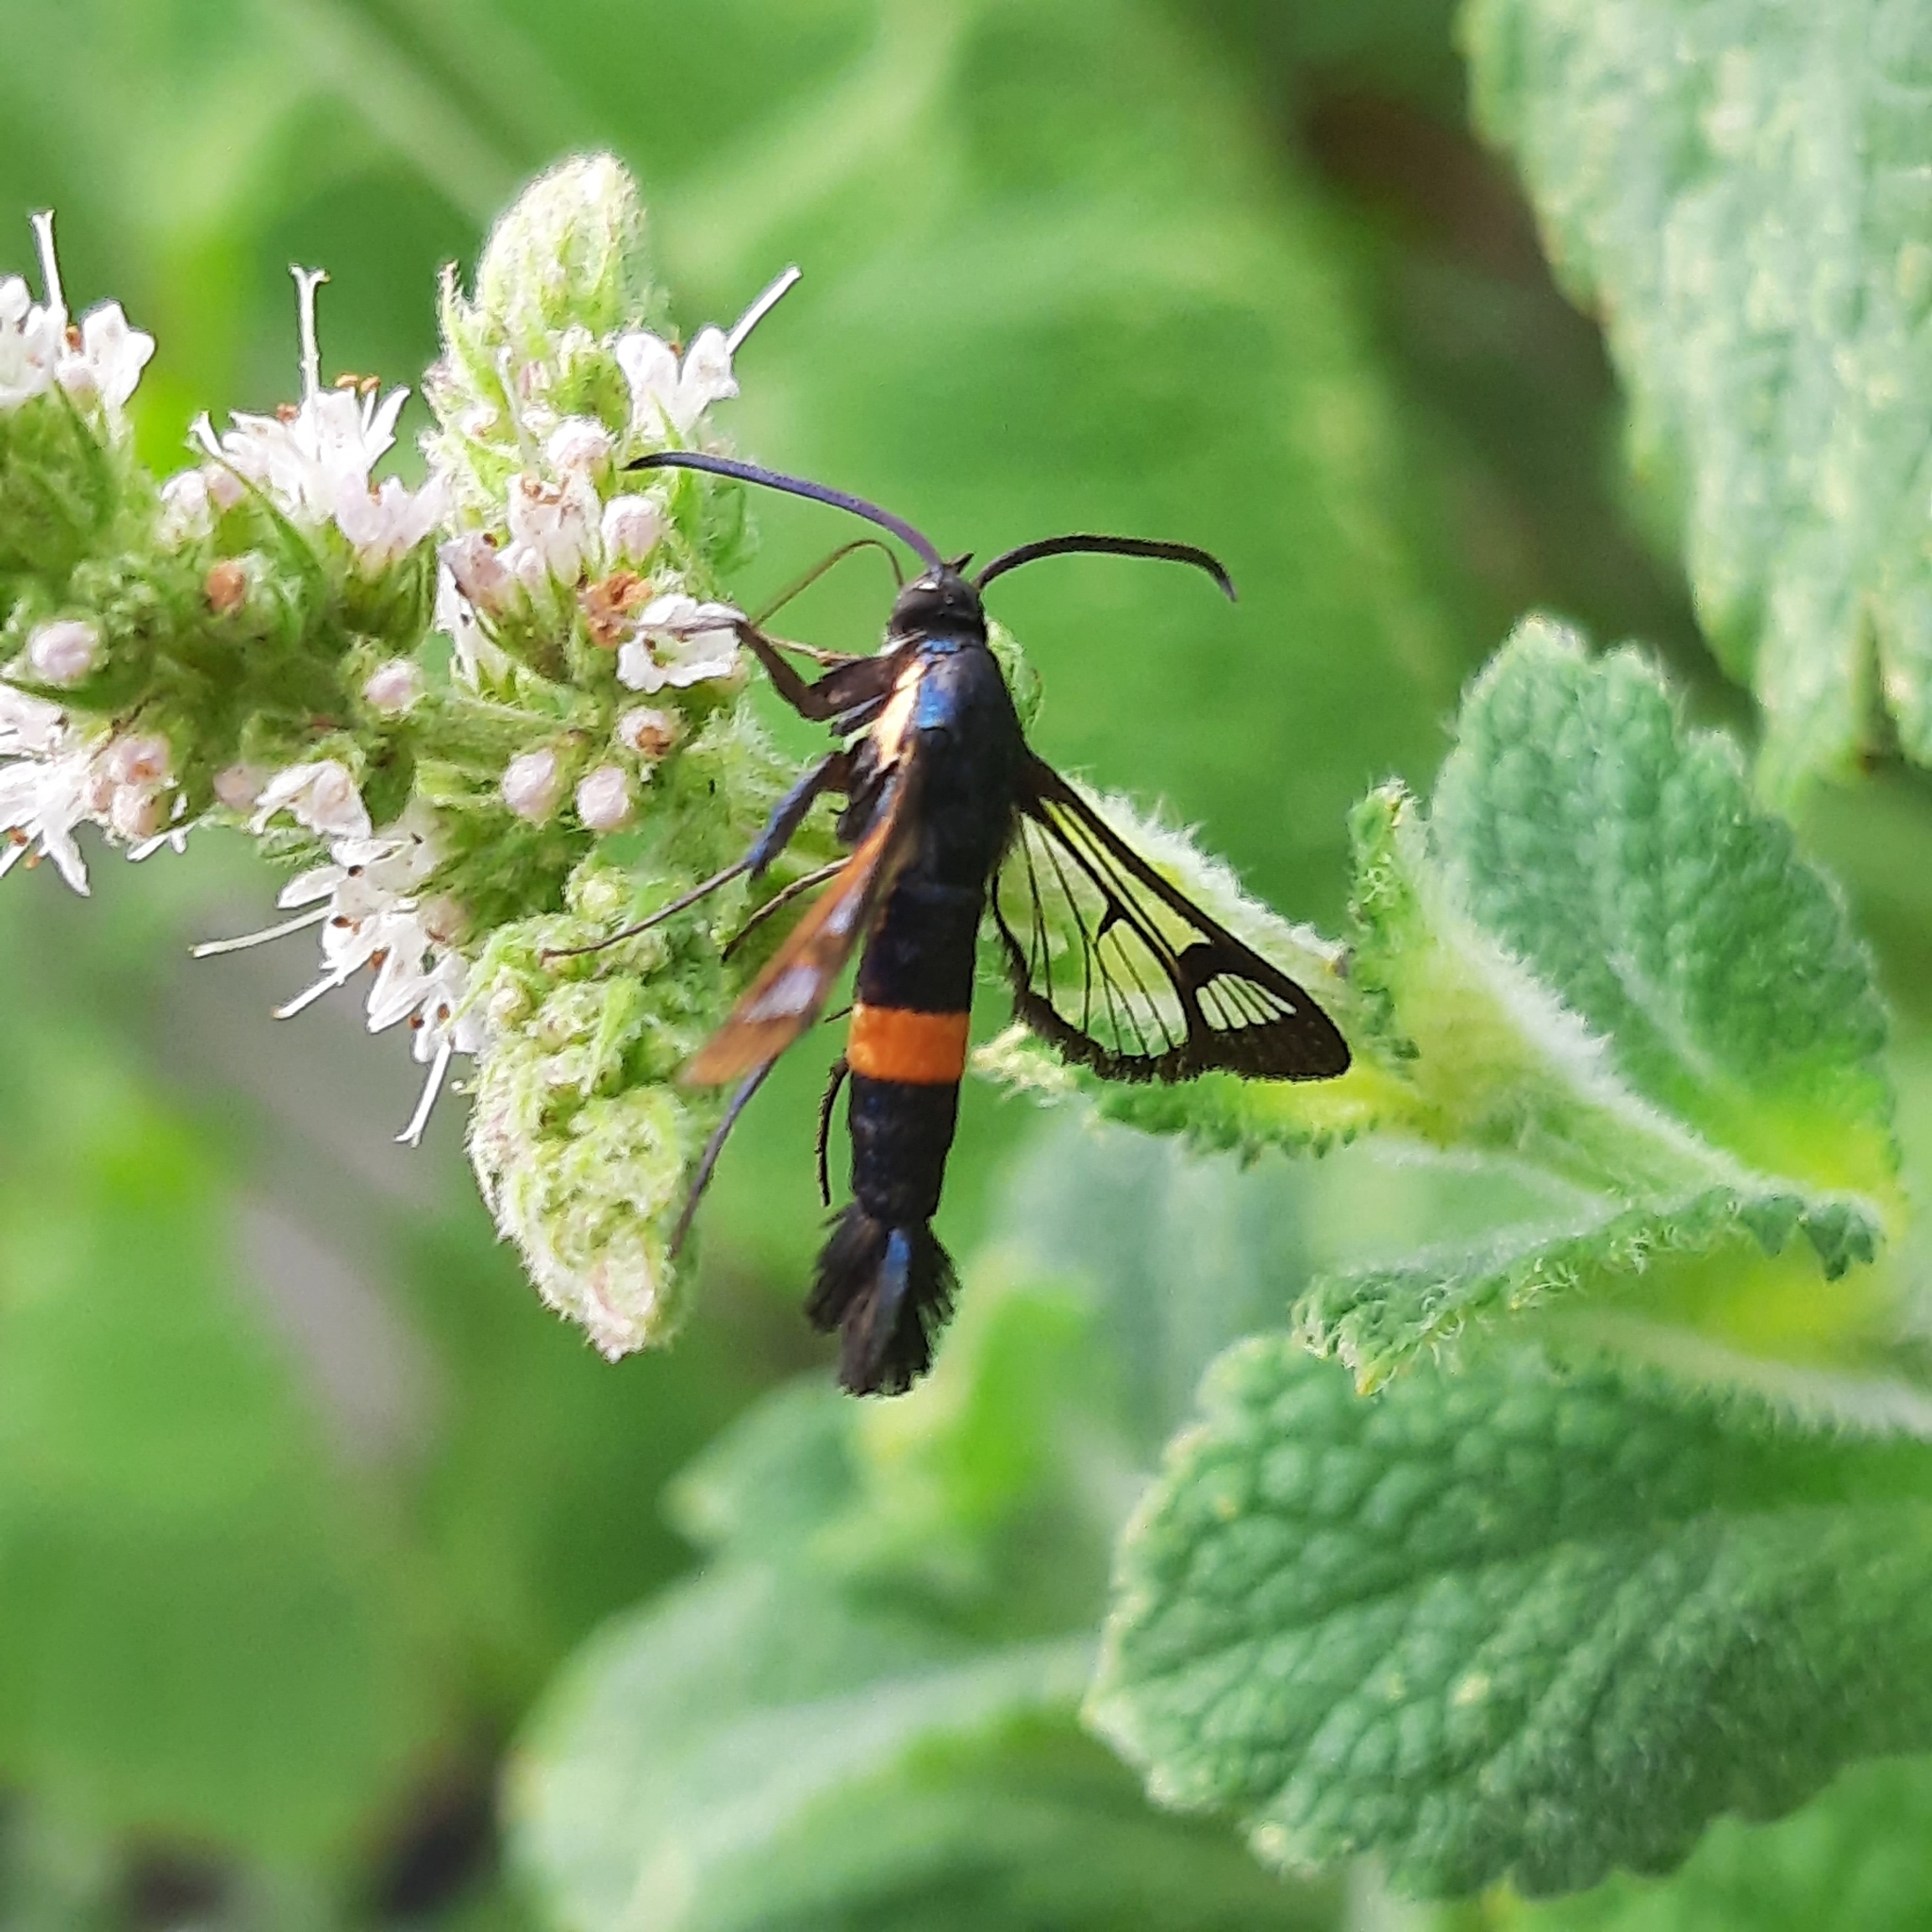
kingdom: Animalia
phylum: Arthropoda
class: Insecta
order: Lepidoptera
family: Sesiidae
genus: Synanthedon
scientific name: Synanthedon myopaeformis
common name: Red-belted clearwing
